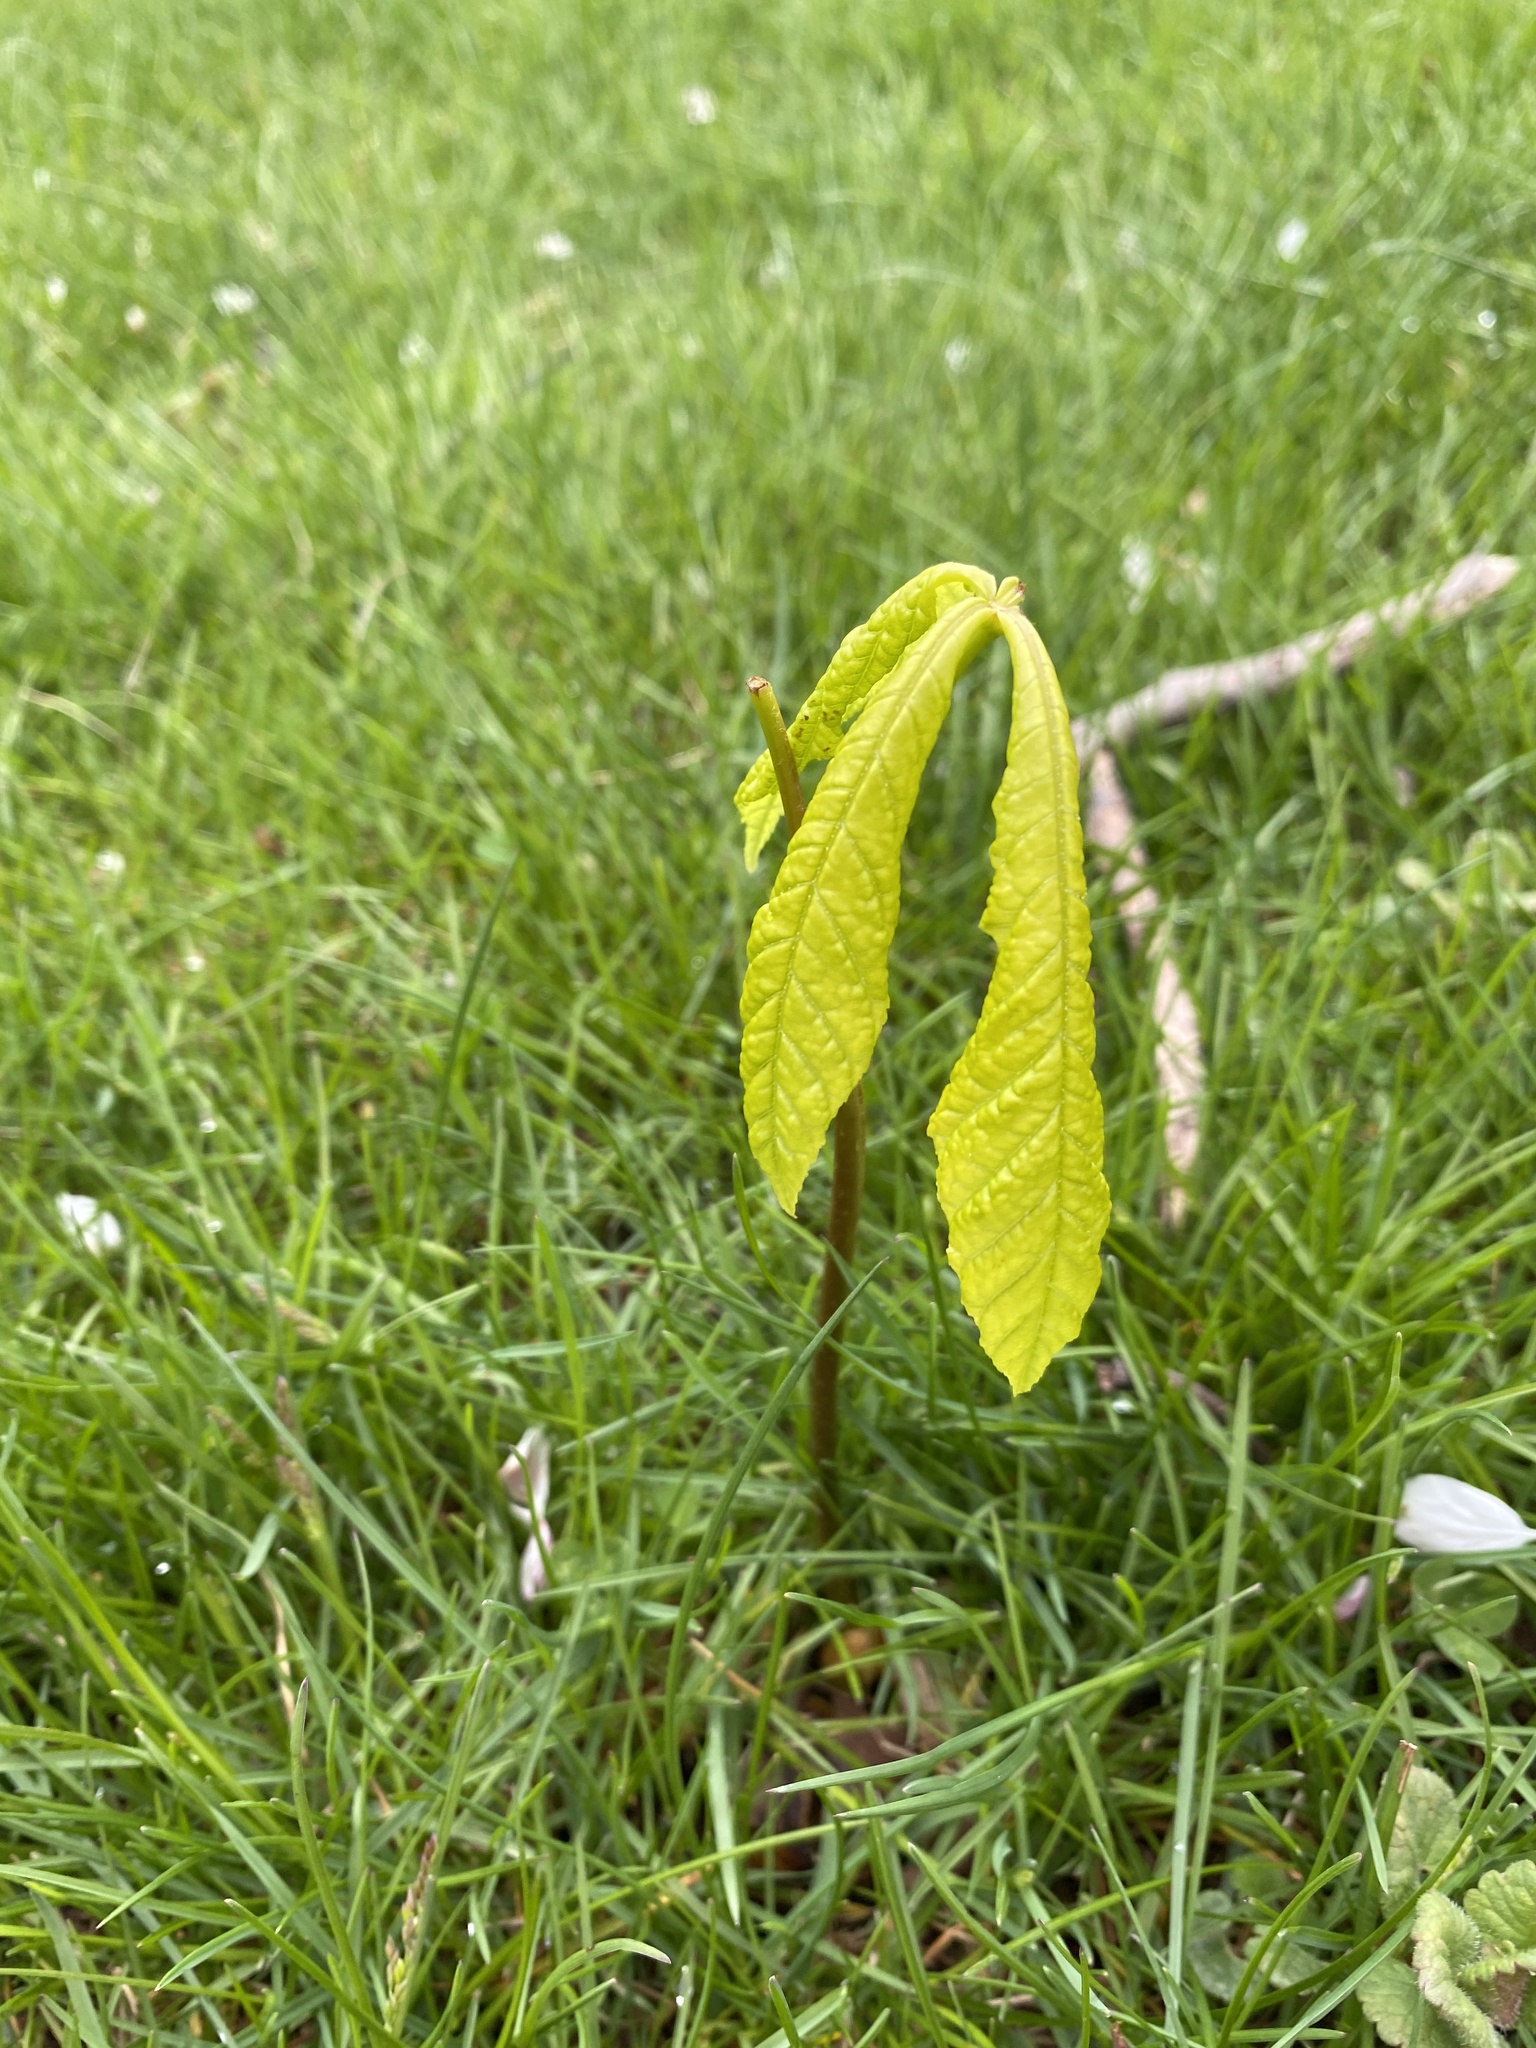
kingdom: Plantae
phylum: Tracheophyta
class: Magnoliopsida
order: Sapindales
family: Sapindaceae
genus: Aesculus
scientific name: Aesculus hippocastanum
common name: Horse-chestnut
